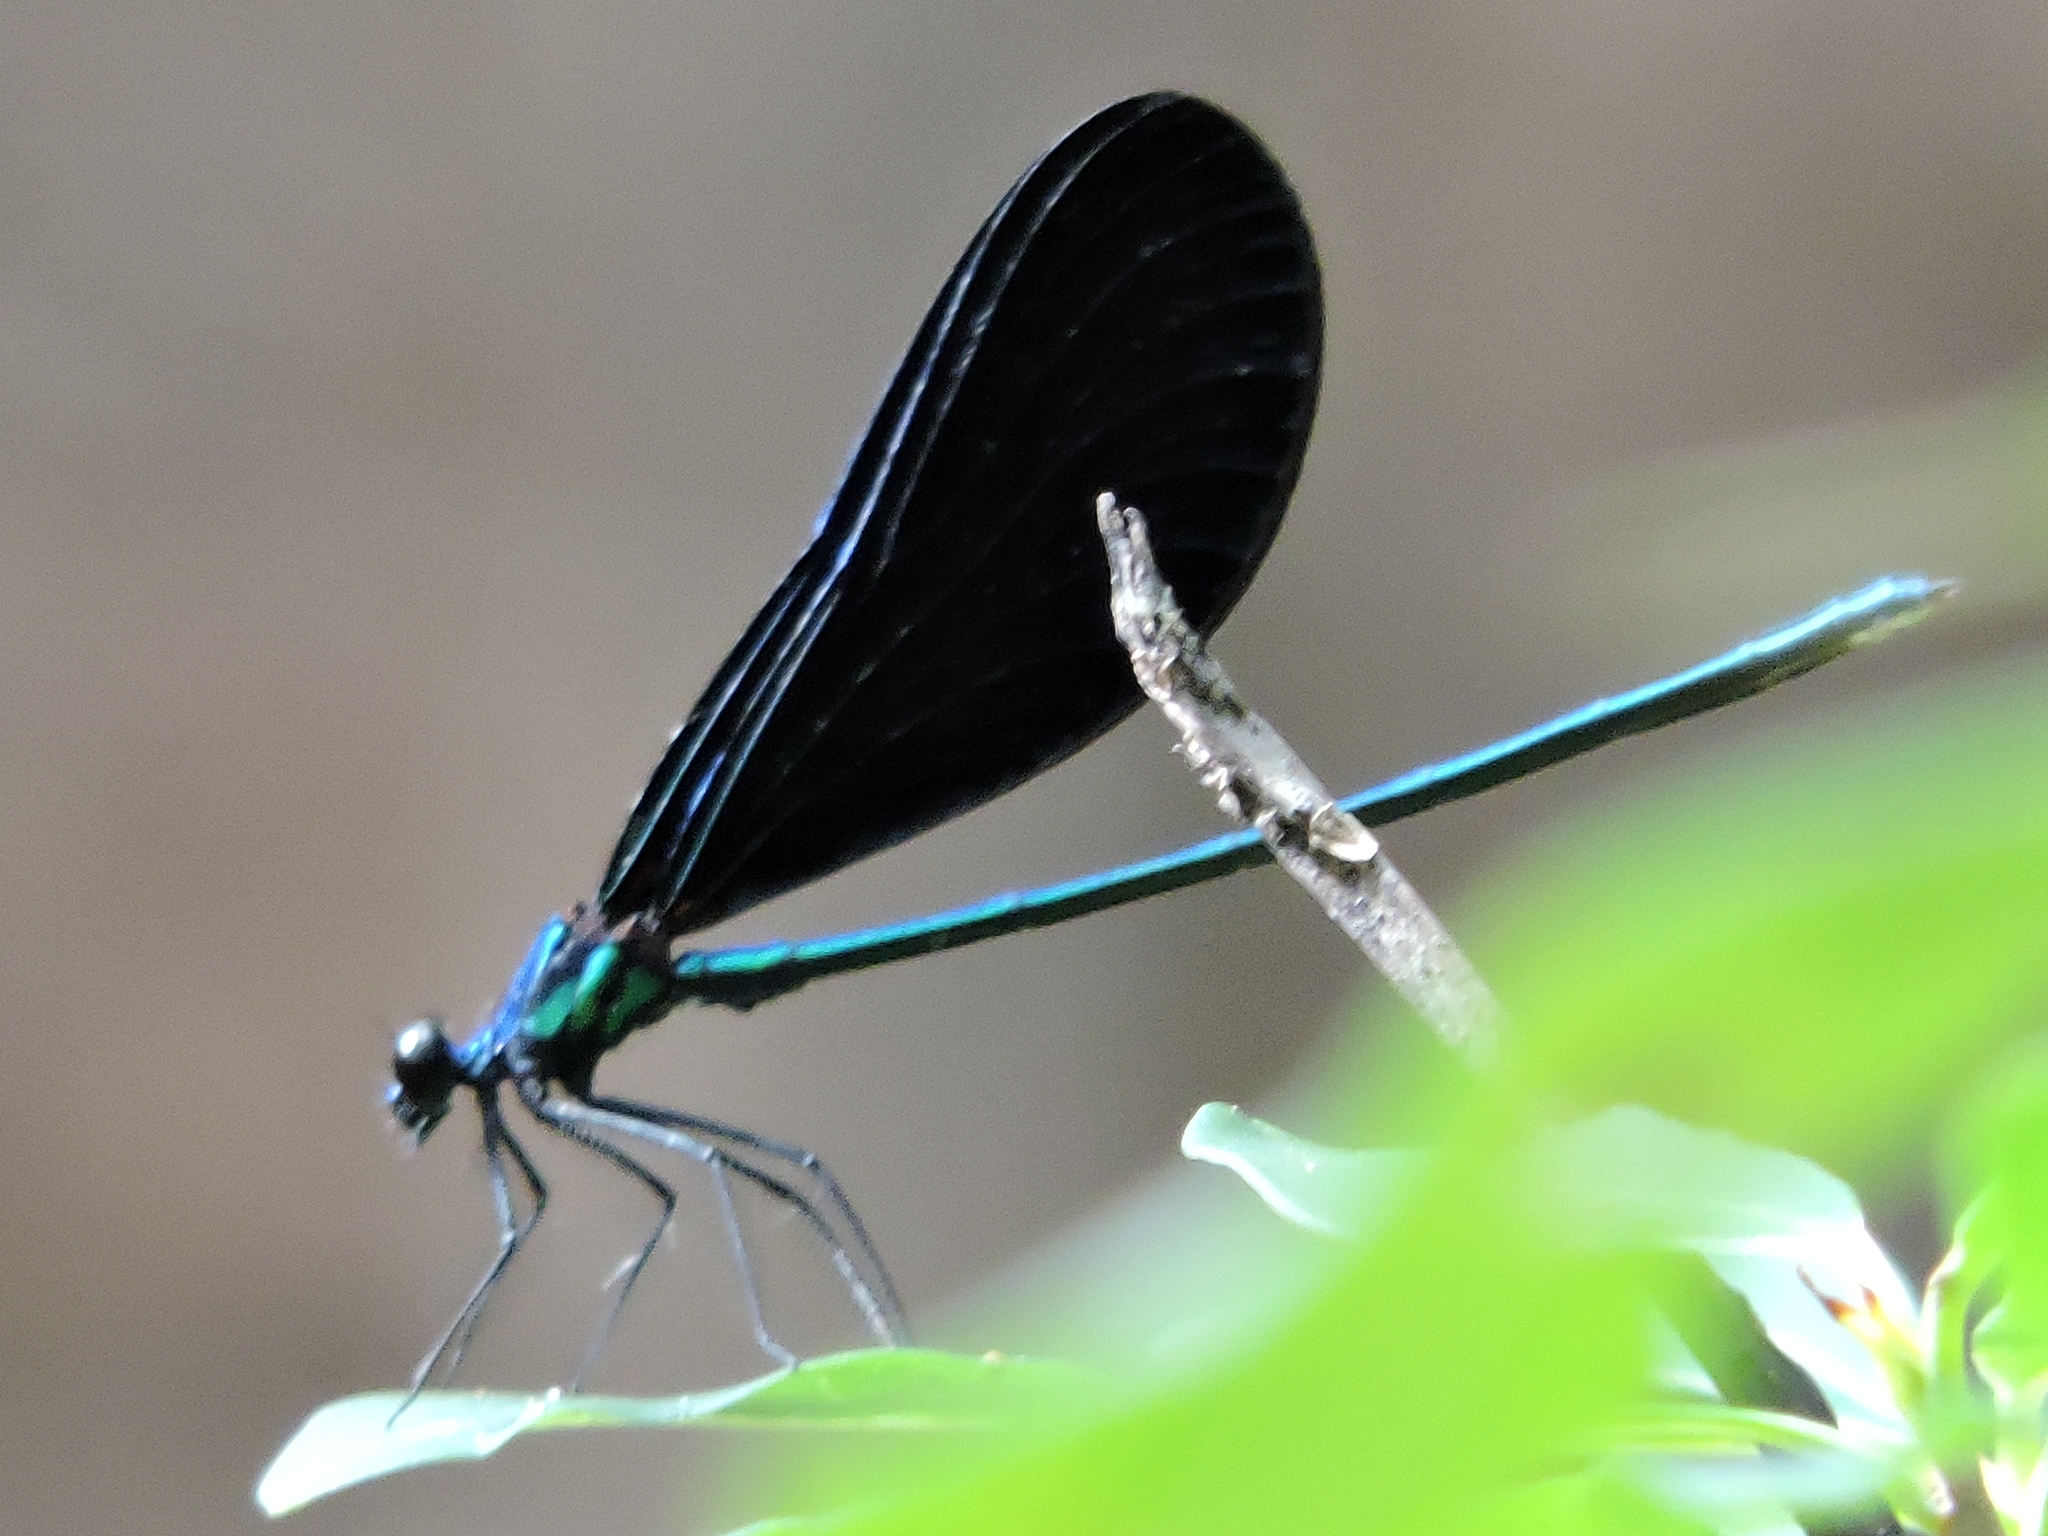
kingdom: Animalia
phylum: Arthropoda
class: Insecta
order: Odonata
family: Calopterygidae
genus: Calopteryx
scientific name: Calopteryx maculata
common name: Ebony jewelwing
